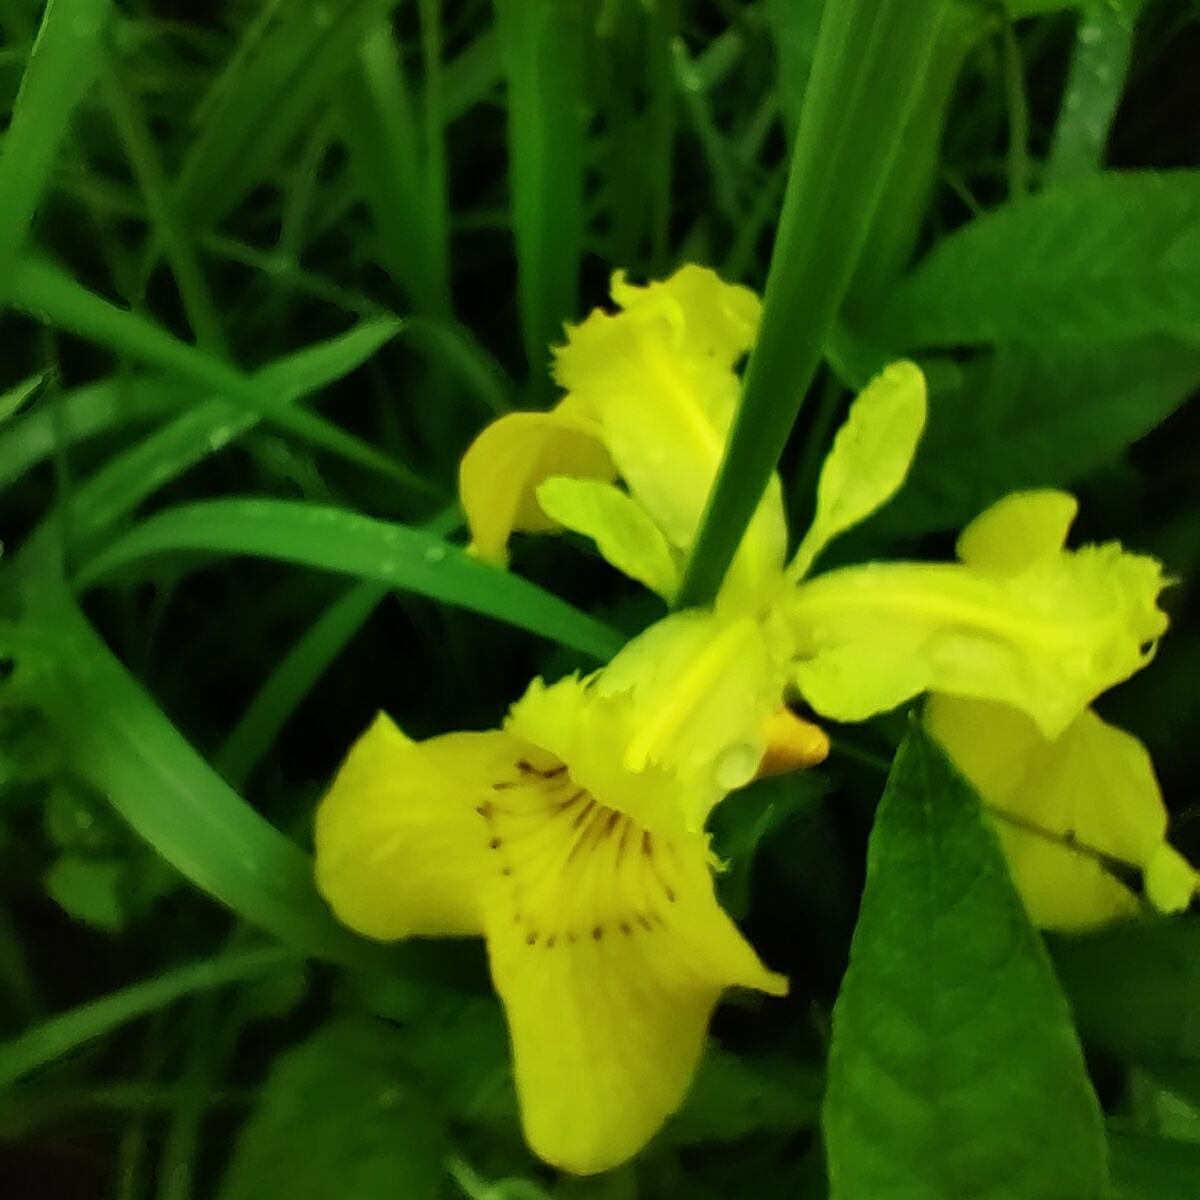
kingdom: Plantae
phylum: Tracheophyta
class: Liliopsida
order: Asparagales
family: Iridaceae
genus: Iris
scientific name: Iris pseudacorus
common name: Yellow flag
